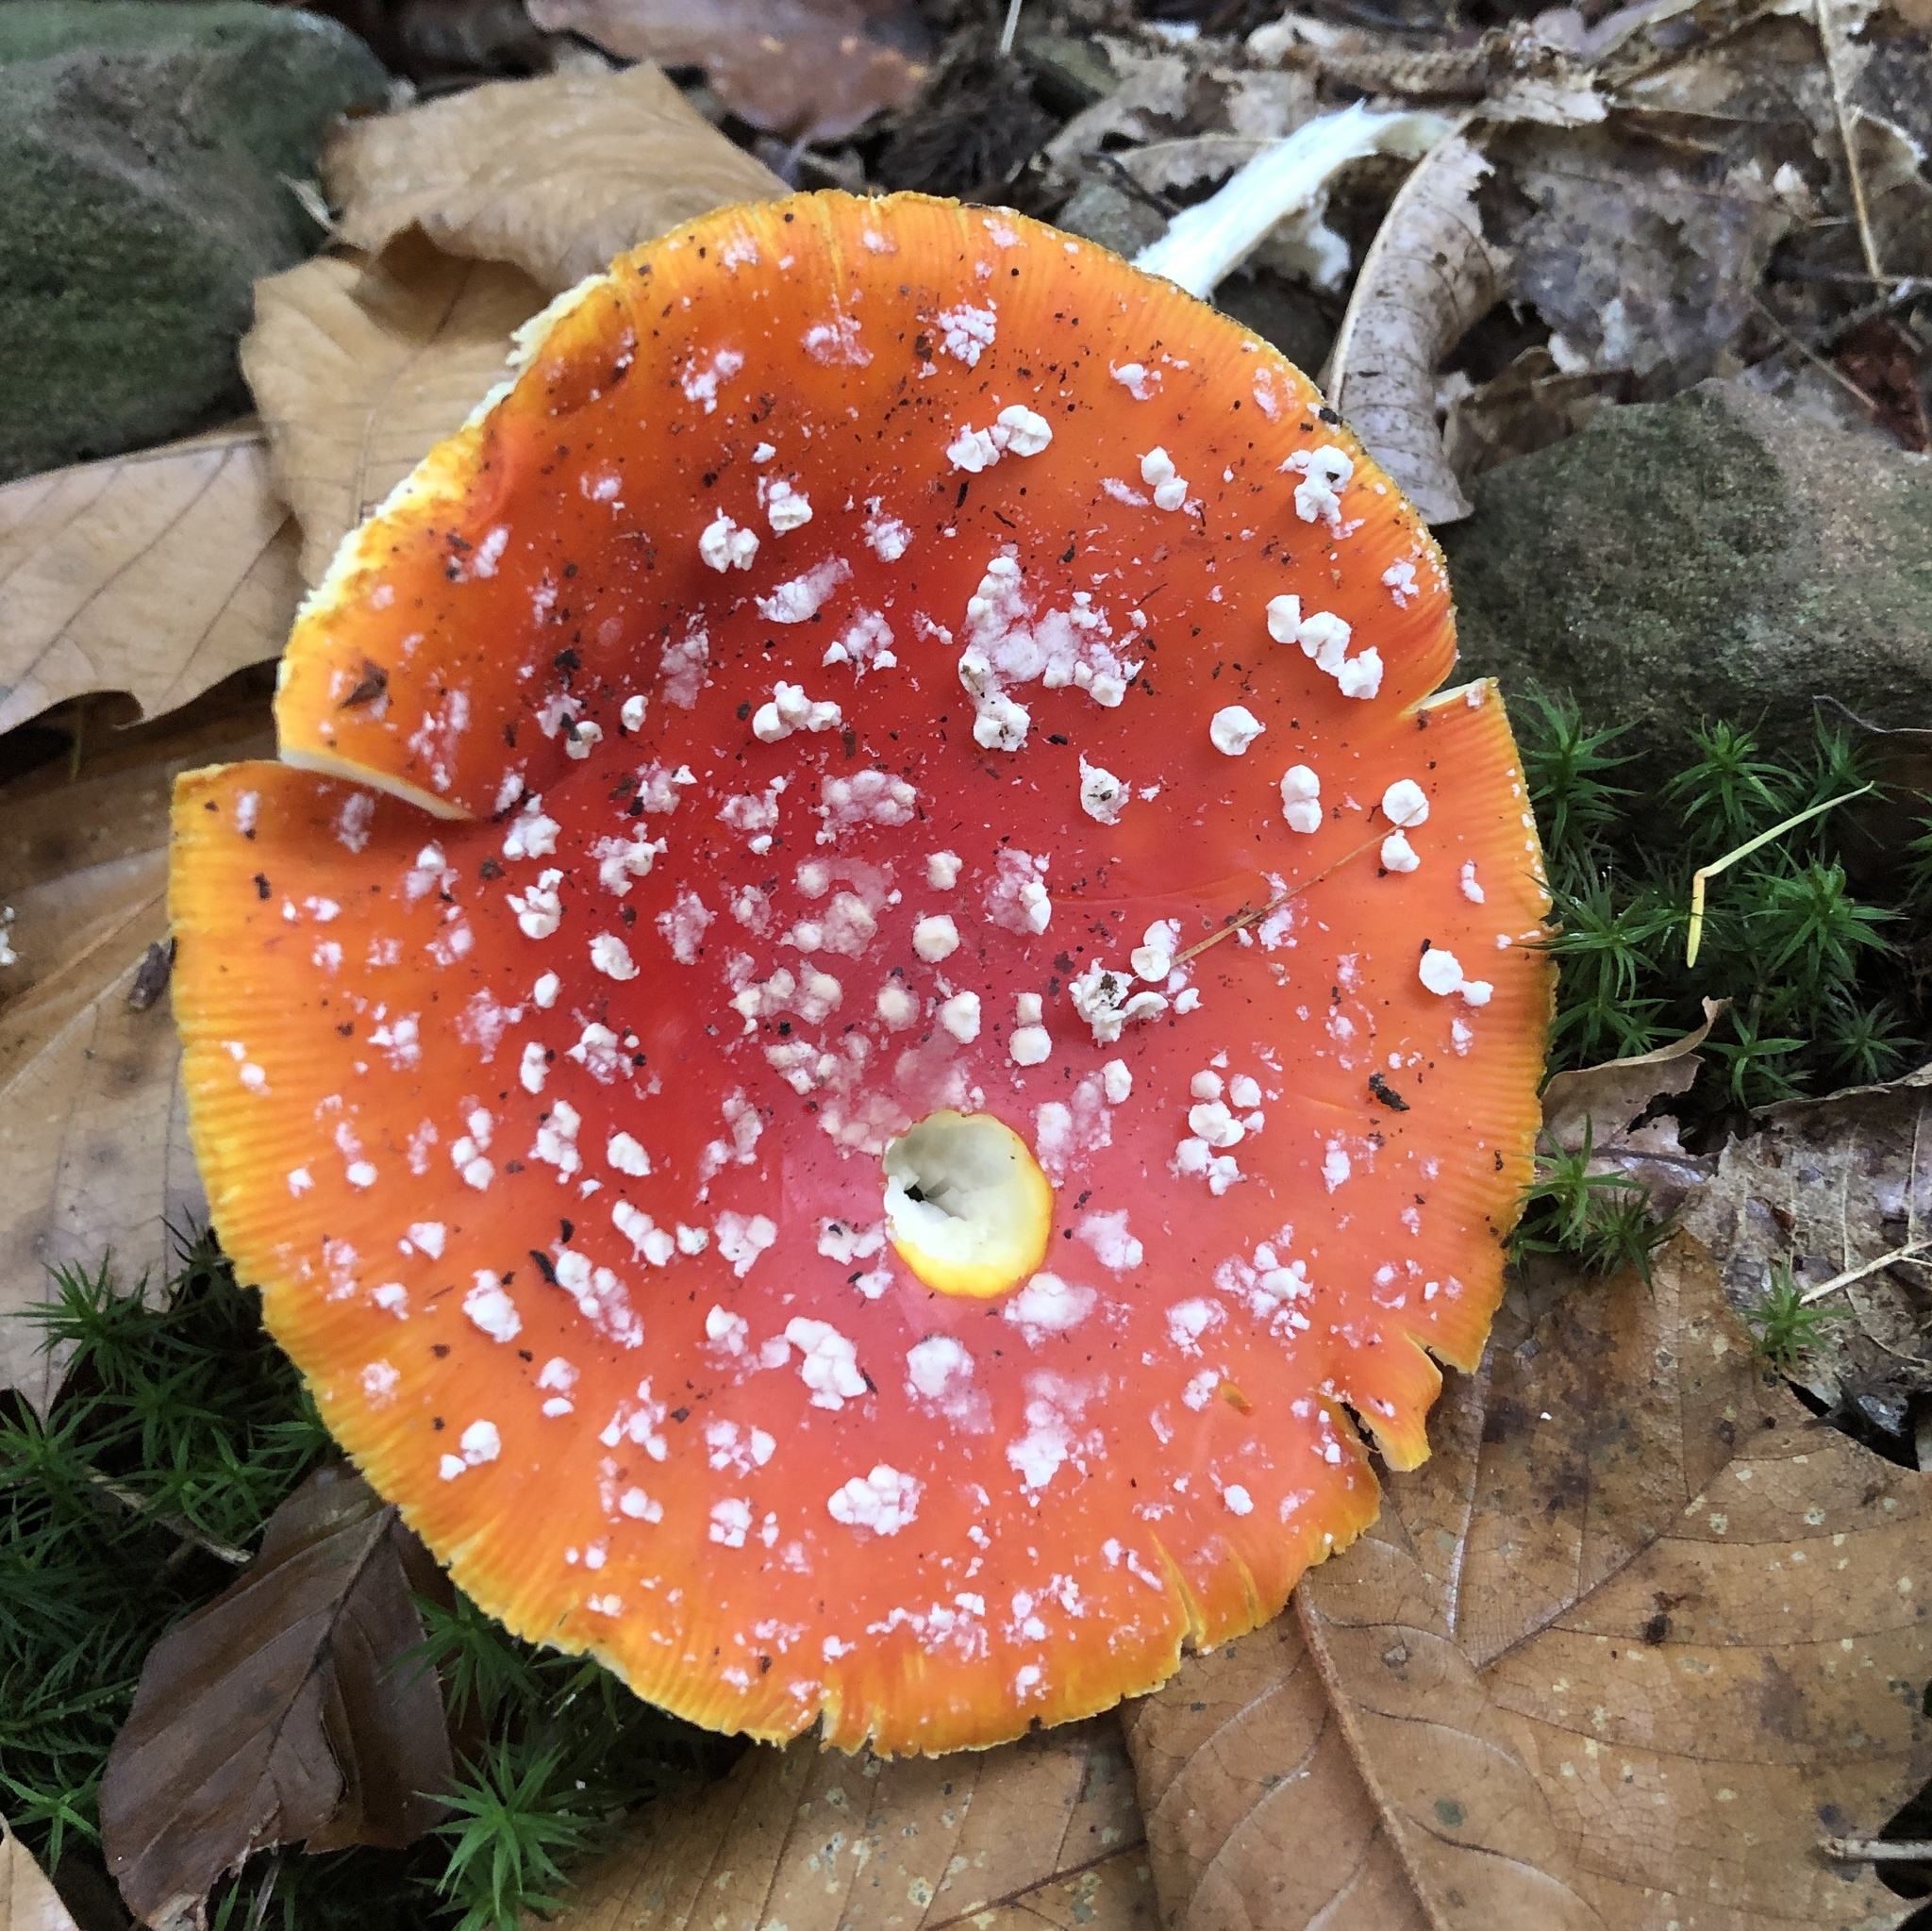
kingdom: Fungi
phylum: Basidiomycota
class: Agaricomycetes
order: Agaricales
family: Amanitaceae
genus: Amanita
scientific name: Amanita muscaria
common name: Fly agaric
